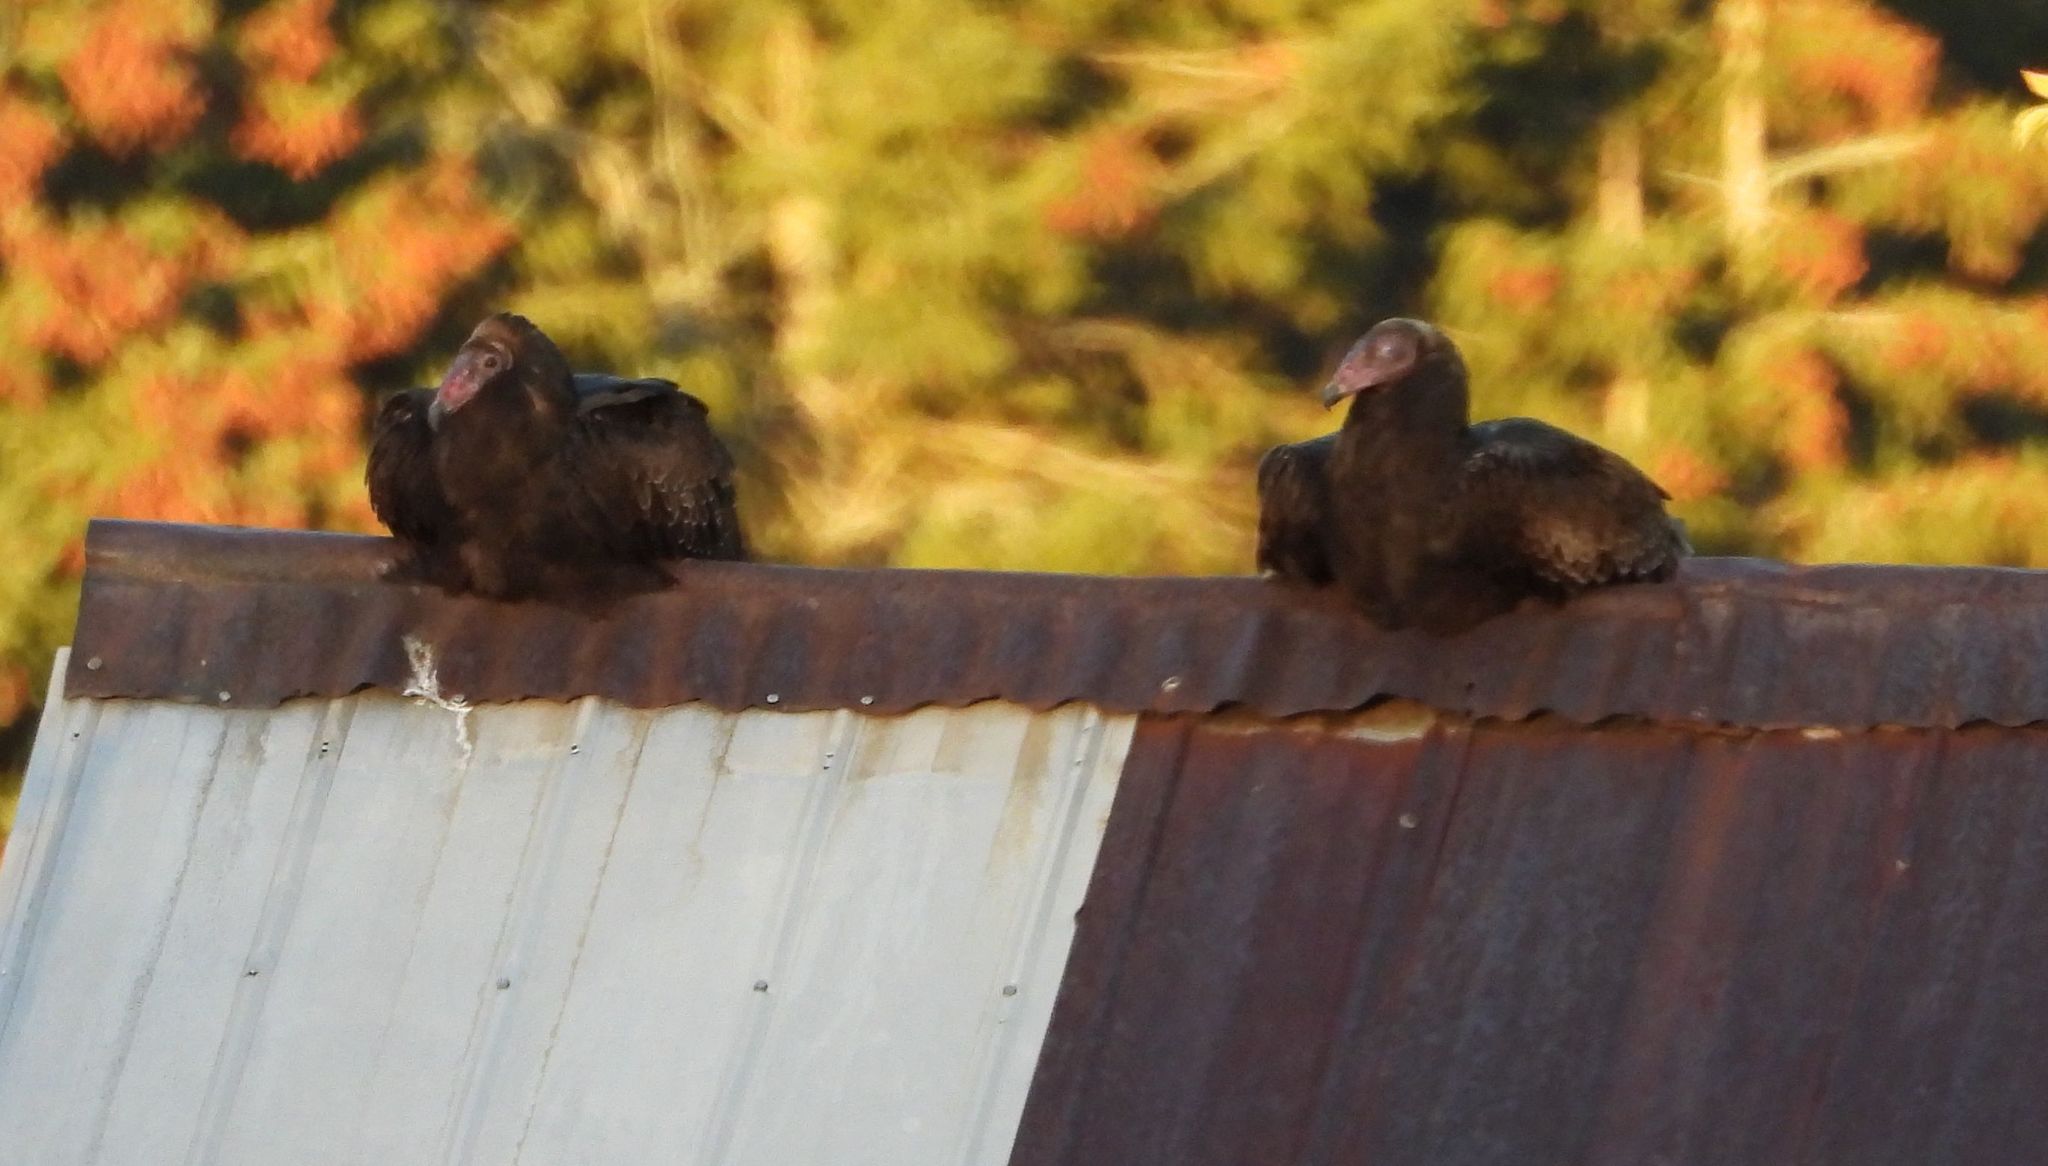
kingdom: Animalia
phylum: Chordata
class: Aves
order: Accipitriformes
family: Cathartidae
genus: Cathartes
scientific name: Cathartes aura
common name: Turkey vulture
